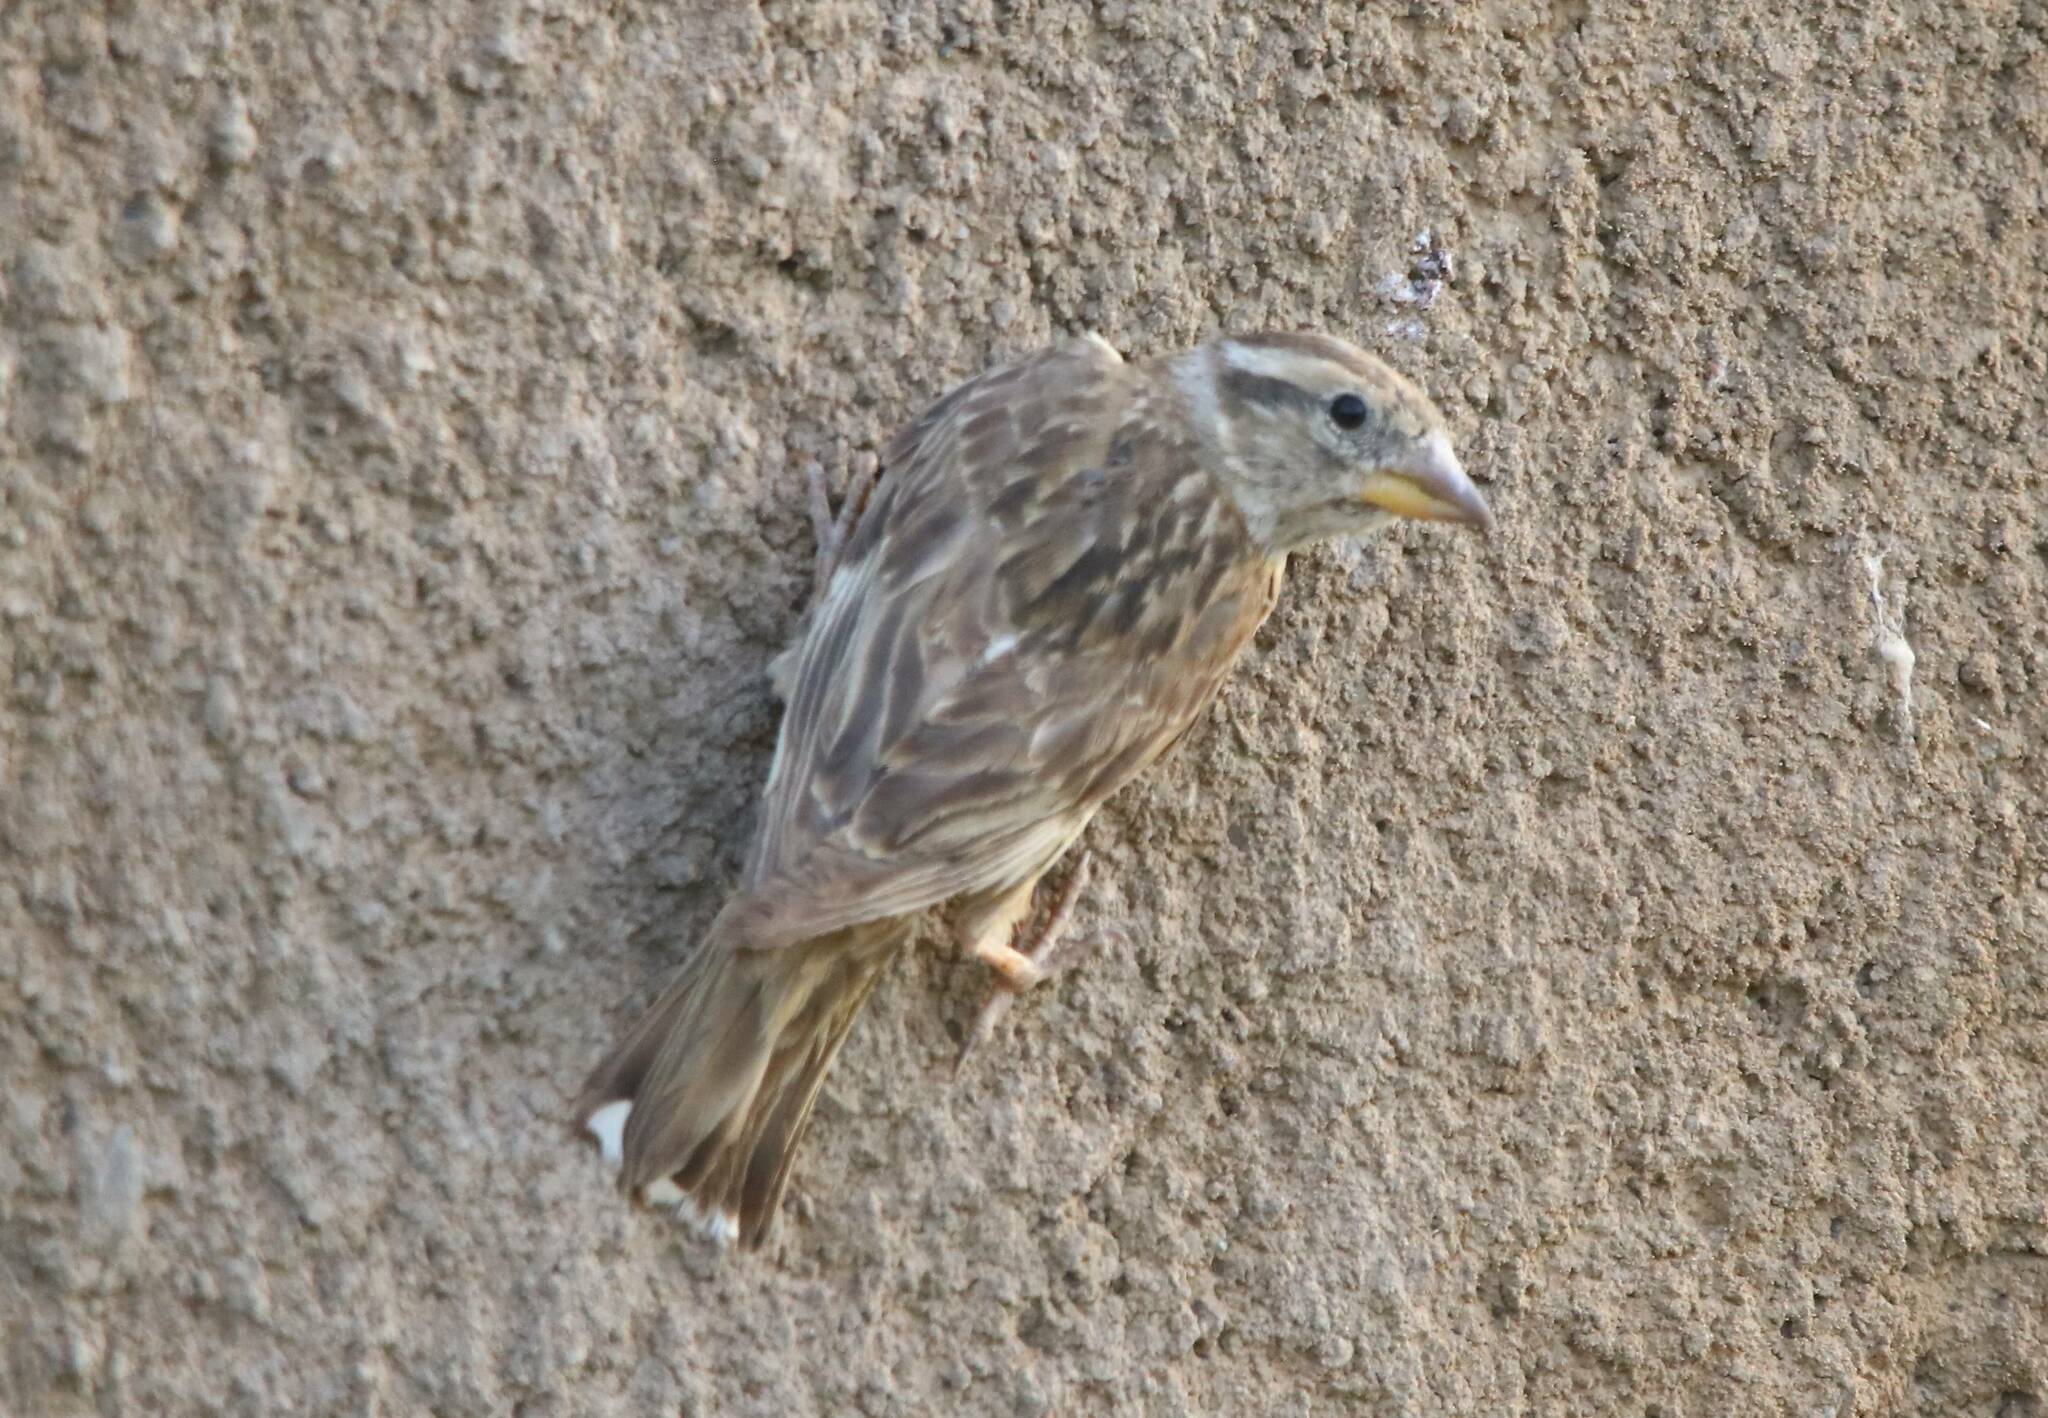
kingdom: Animalia
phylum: Chordata
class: Aves
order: Passeriformes
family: Passeridae
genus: Petronia
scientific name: Petronia petronia
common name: Rock sparrow
